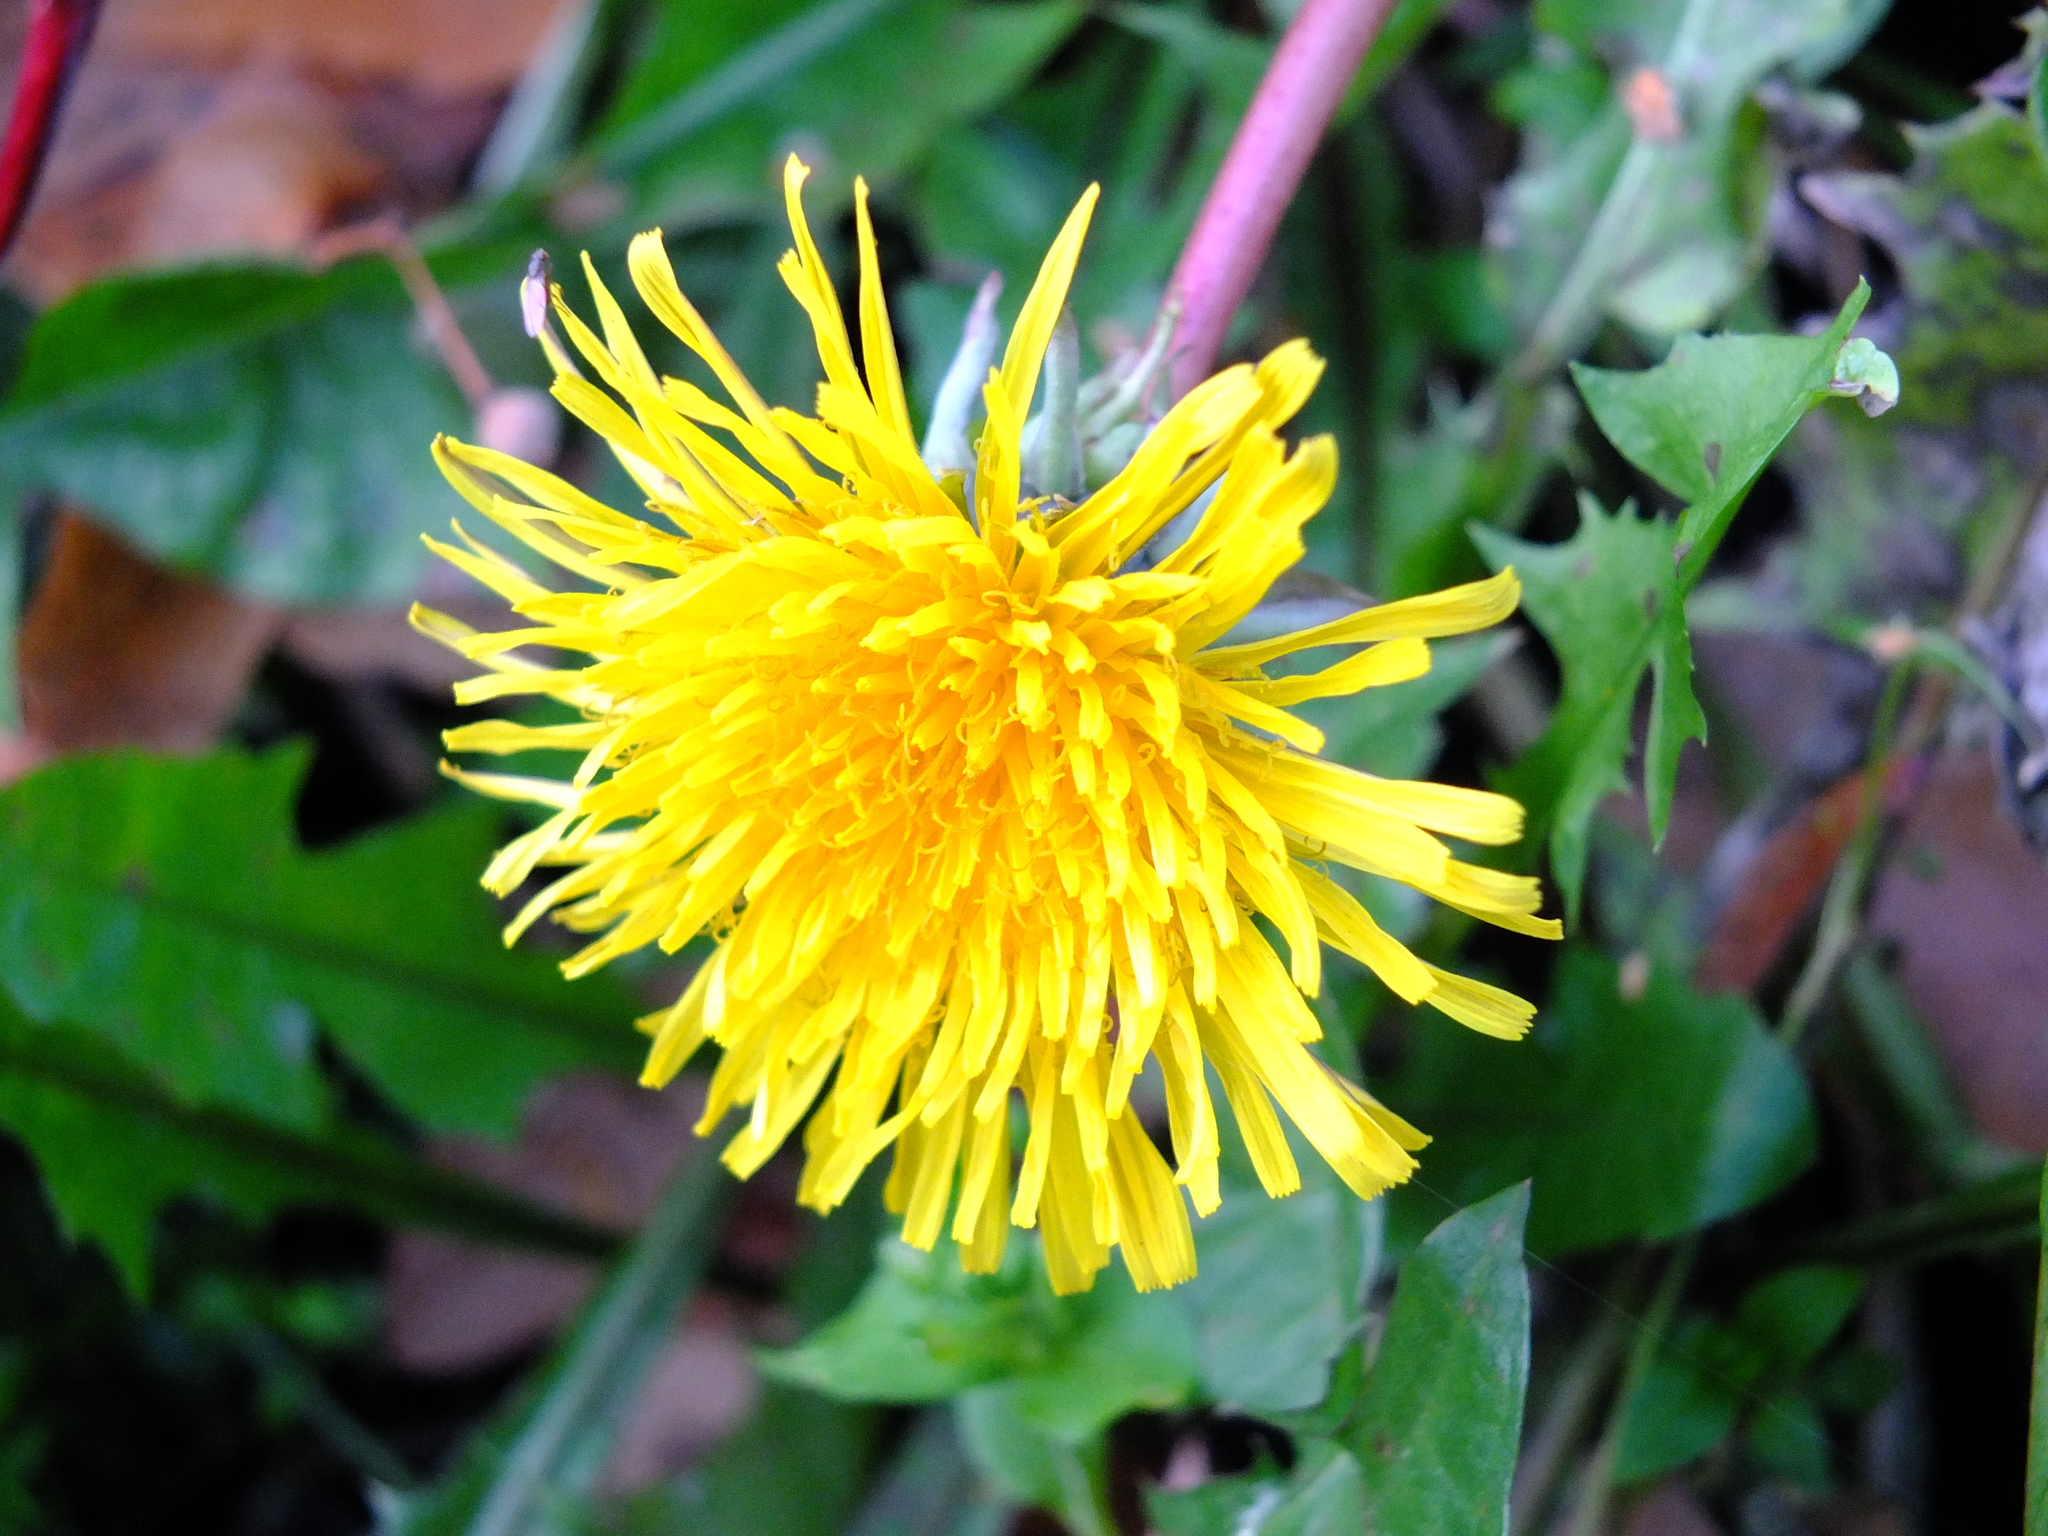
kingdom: Plantae
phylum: Tracheophyta
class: Magnoliopsida
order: Asterales
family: Asteraceae
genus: Taraxacum
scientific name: Taraxacum officinale
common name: Common dandelion
